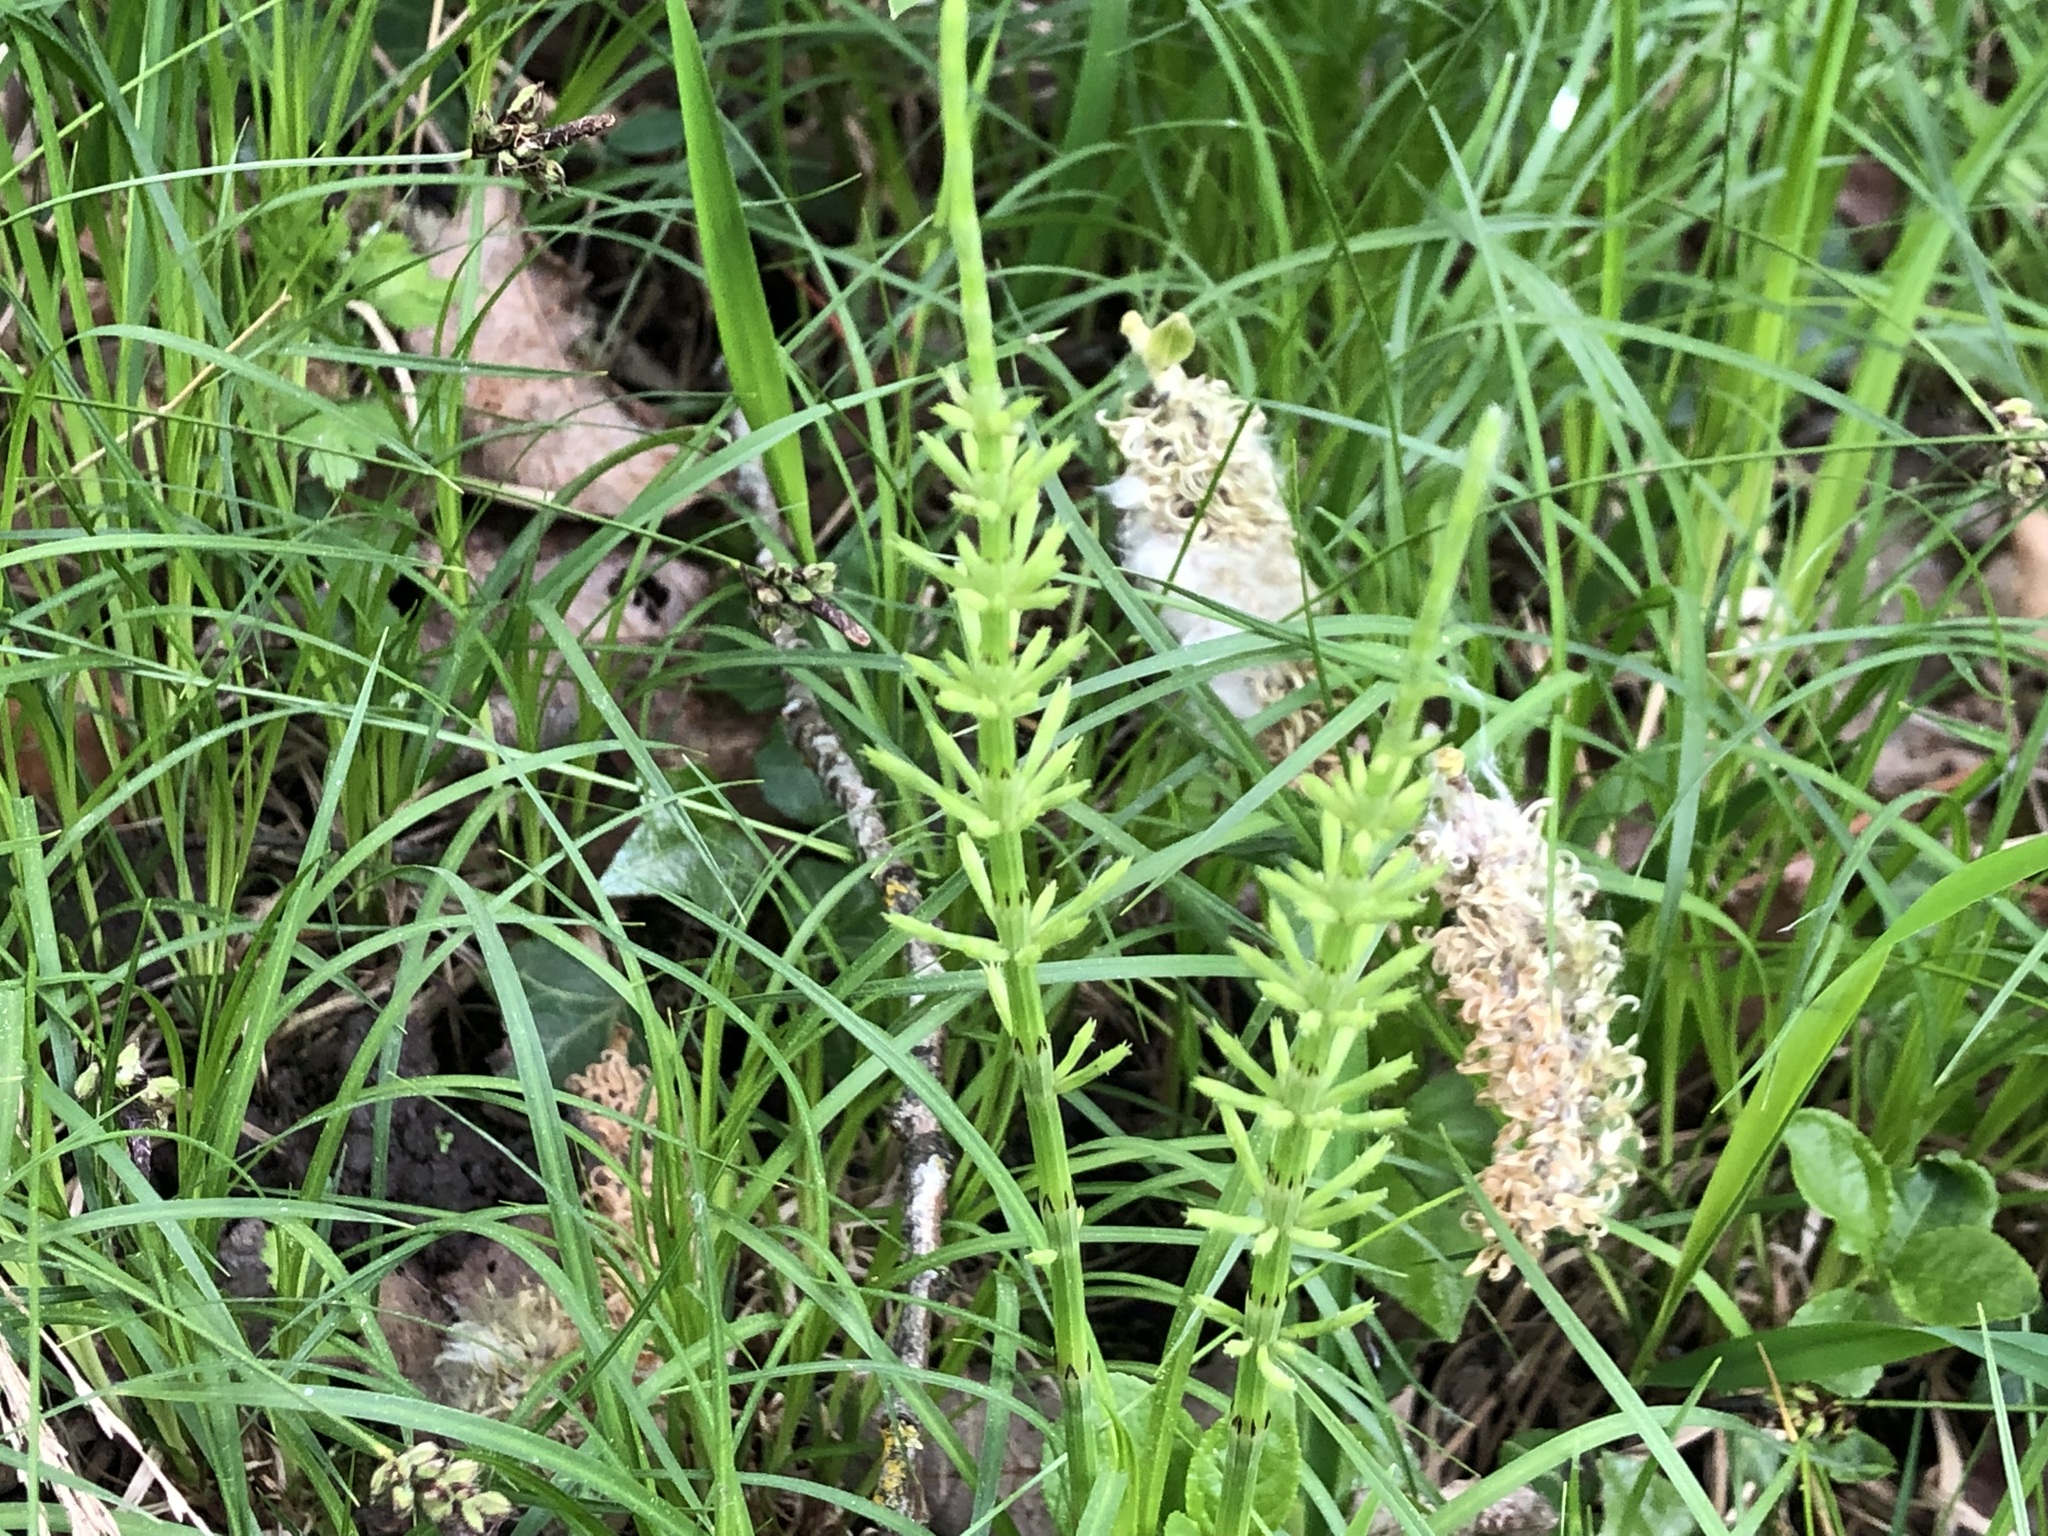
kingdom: Plantae
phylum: Tracheophyta
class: Polypodiopsida
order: Equisetales
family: Equisetaceae
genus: Equisetum
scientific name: Equisetum arvense
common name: Field horsetail
